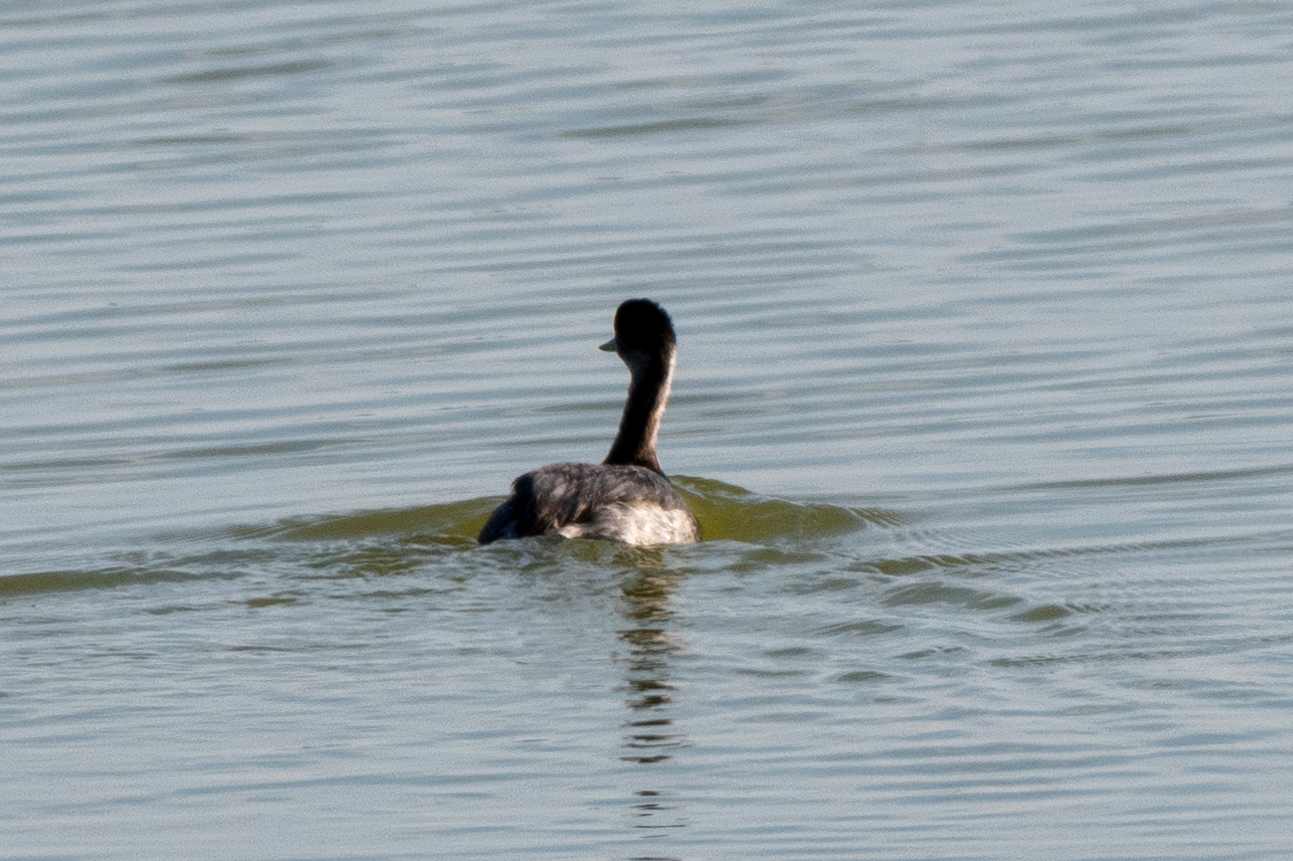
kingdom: Animalia
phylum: Chordata
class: Aves
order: Podicipediformes
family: Podicipedidae
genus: Podiceps
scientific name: Podiceps nigricollis
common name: Black-necked grebe
